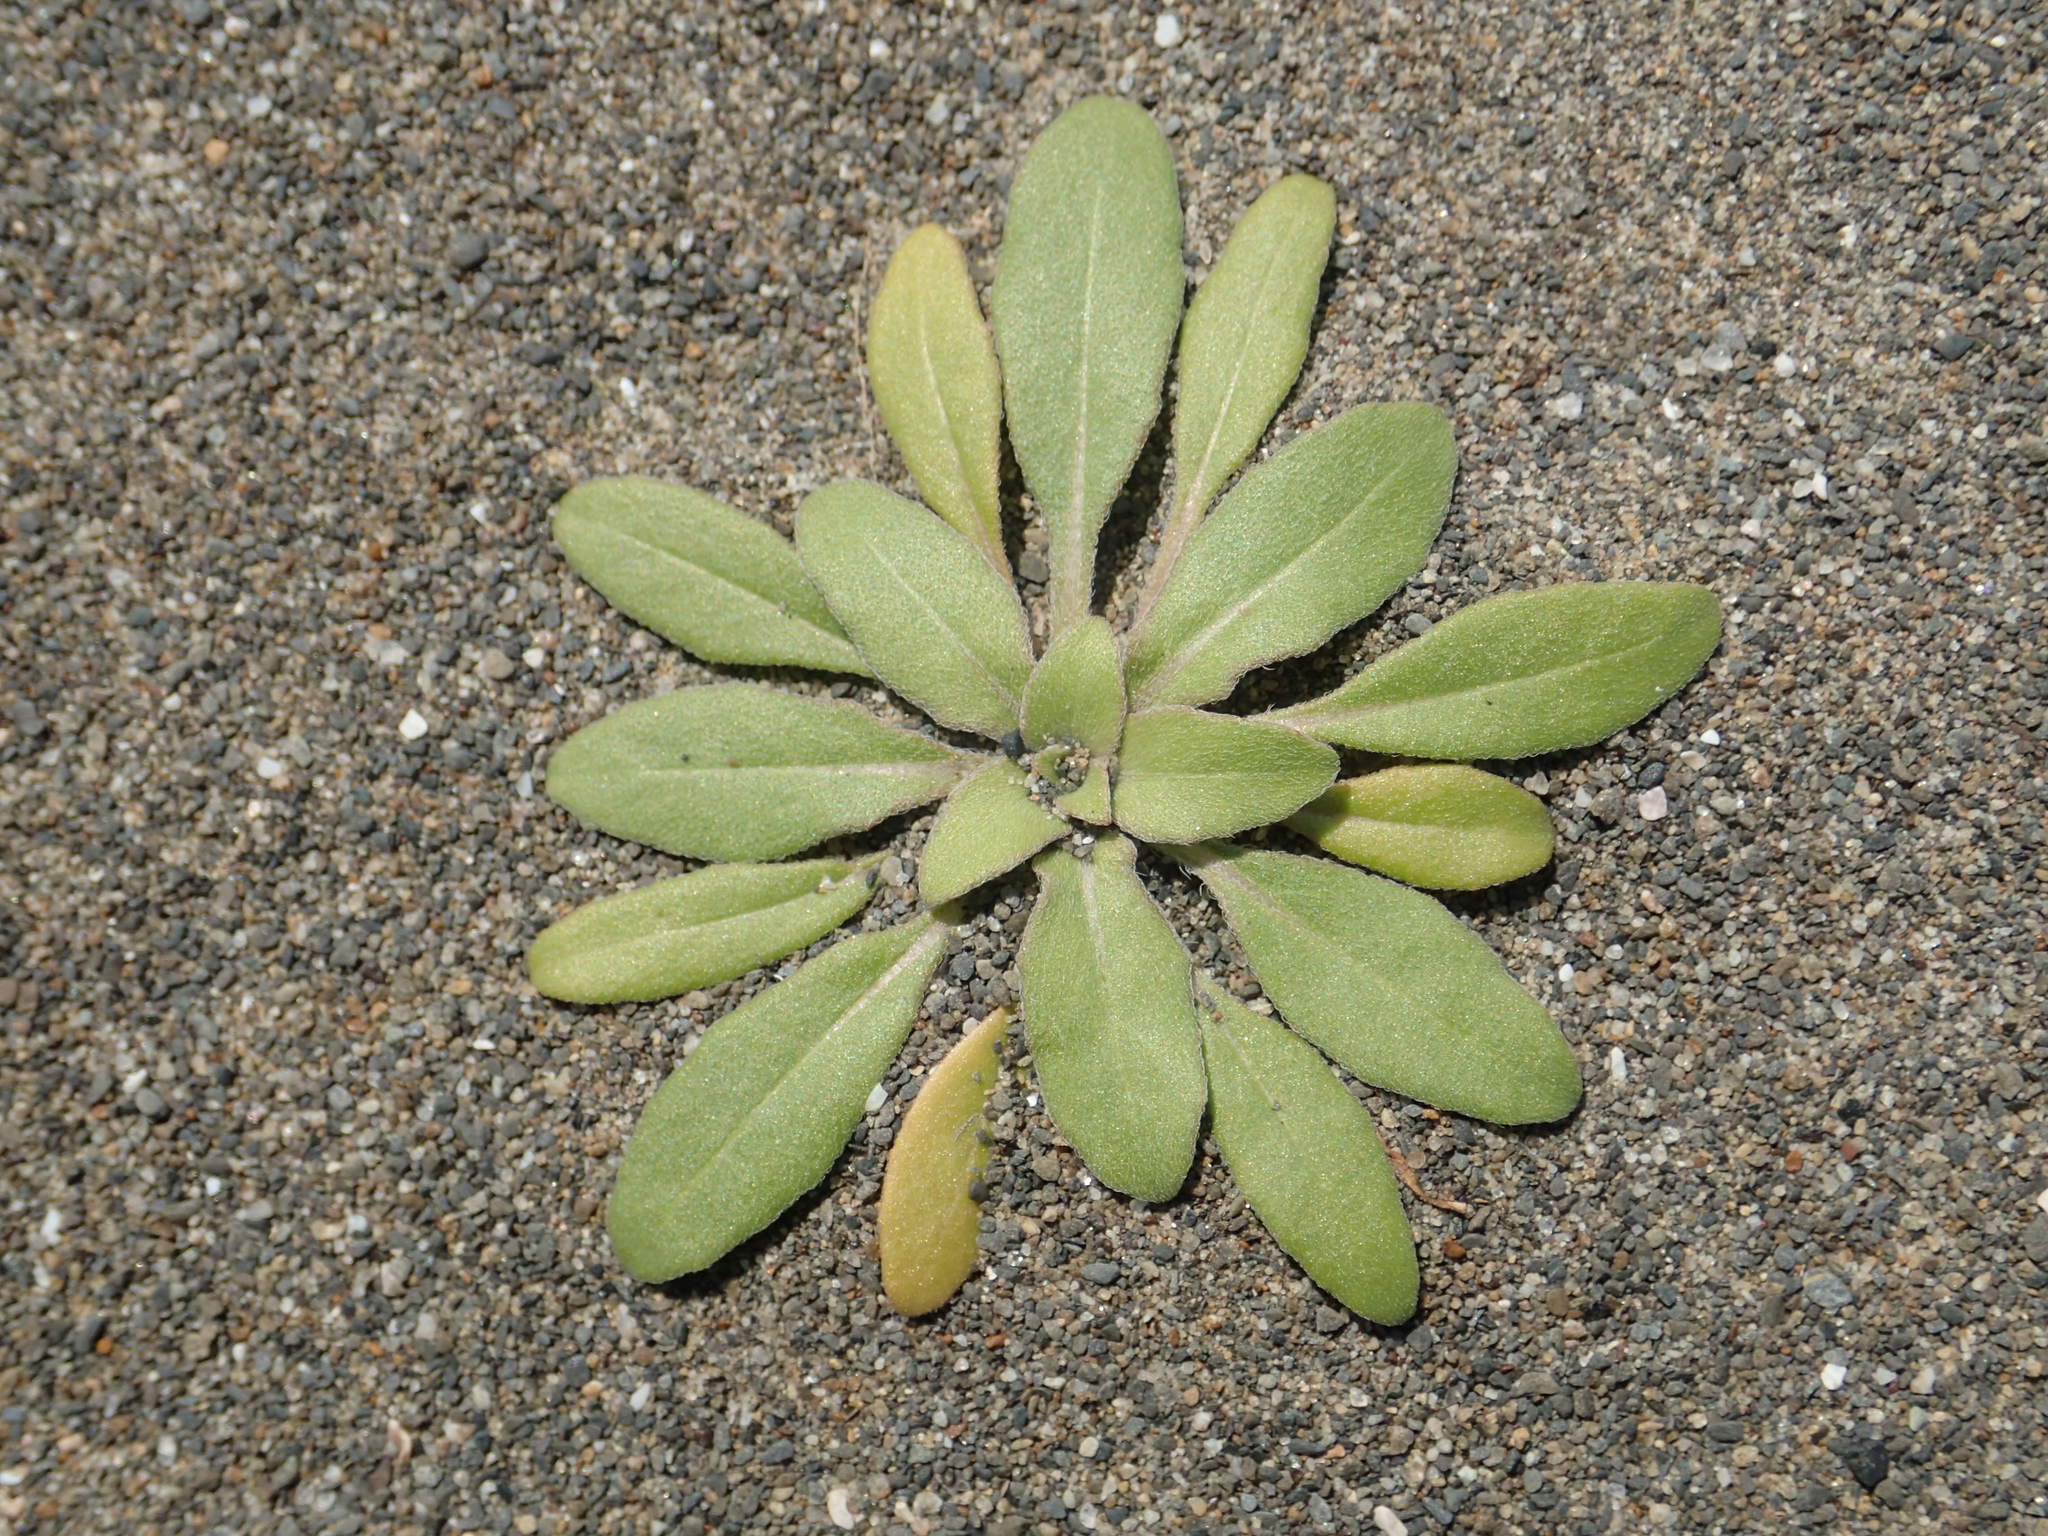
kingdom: Plantae
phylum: Tracheophyta
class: Magnoliopsida
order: Myrtales
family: Onagraceae
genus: Oenothera
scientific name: Oenothera laciniata
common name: Cut-leaved evening-primrose
